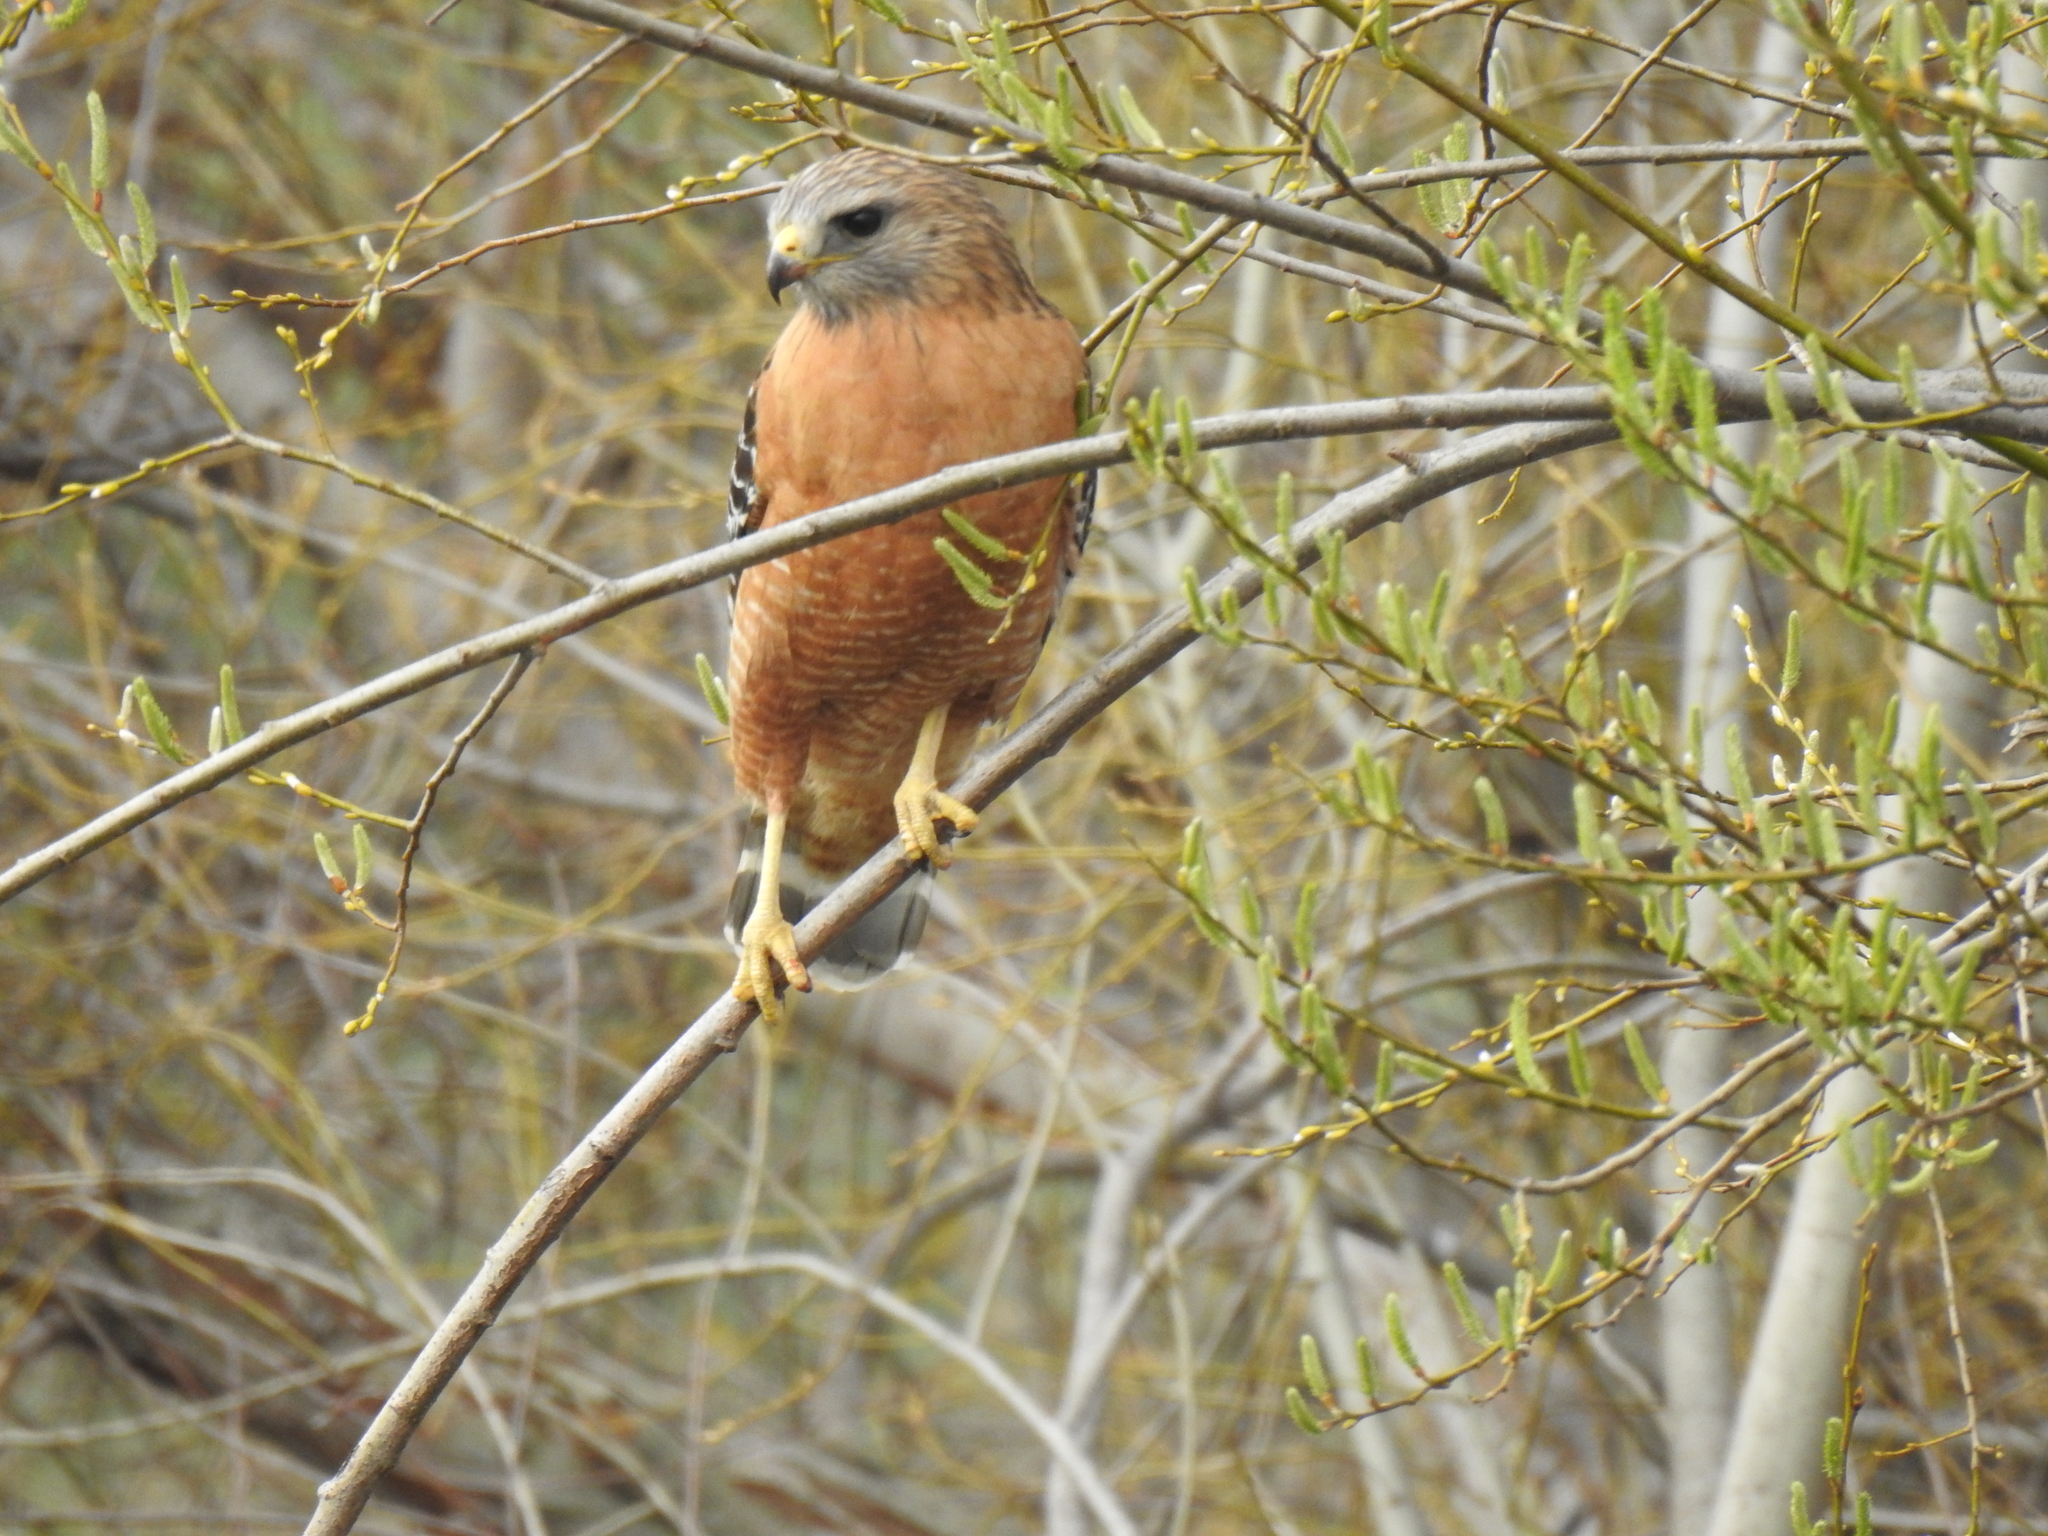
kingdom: Animalia
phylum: Chordata
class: Aves
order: Accipitriformes
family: Accipitridae
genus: Buteo
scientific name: Buteo lineatus
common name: Red-shouldered hawk
